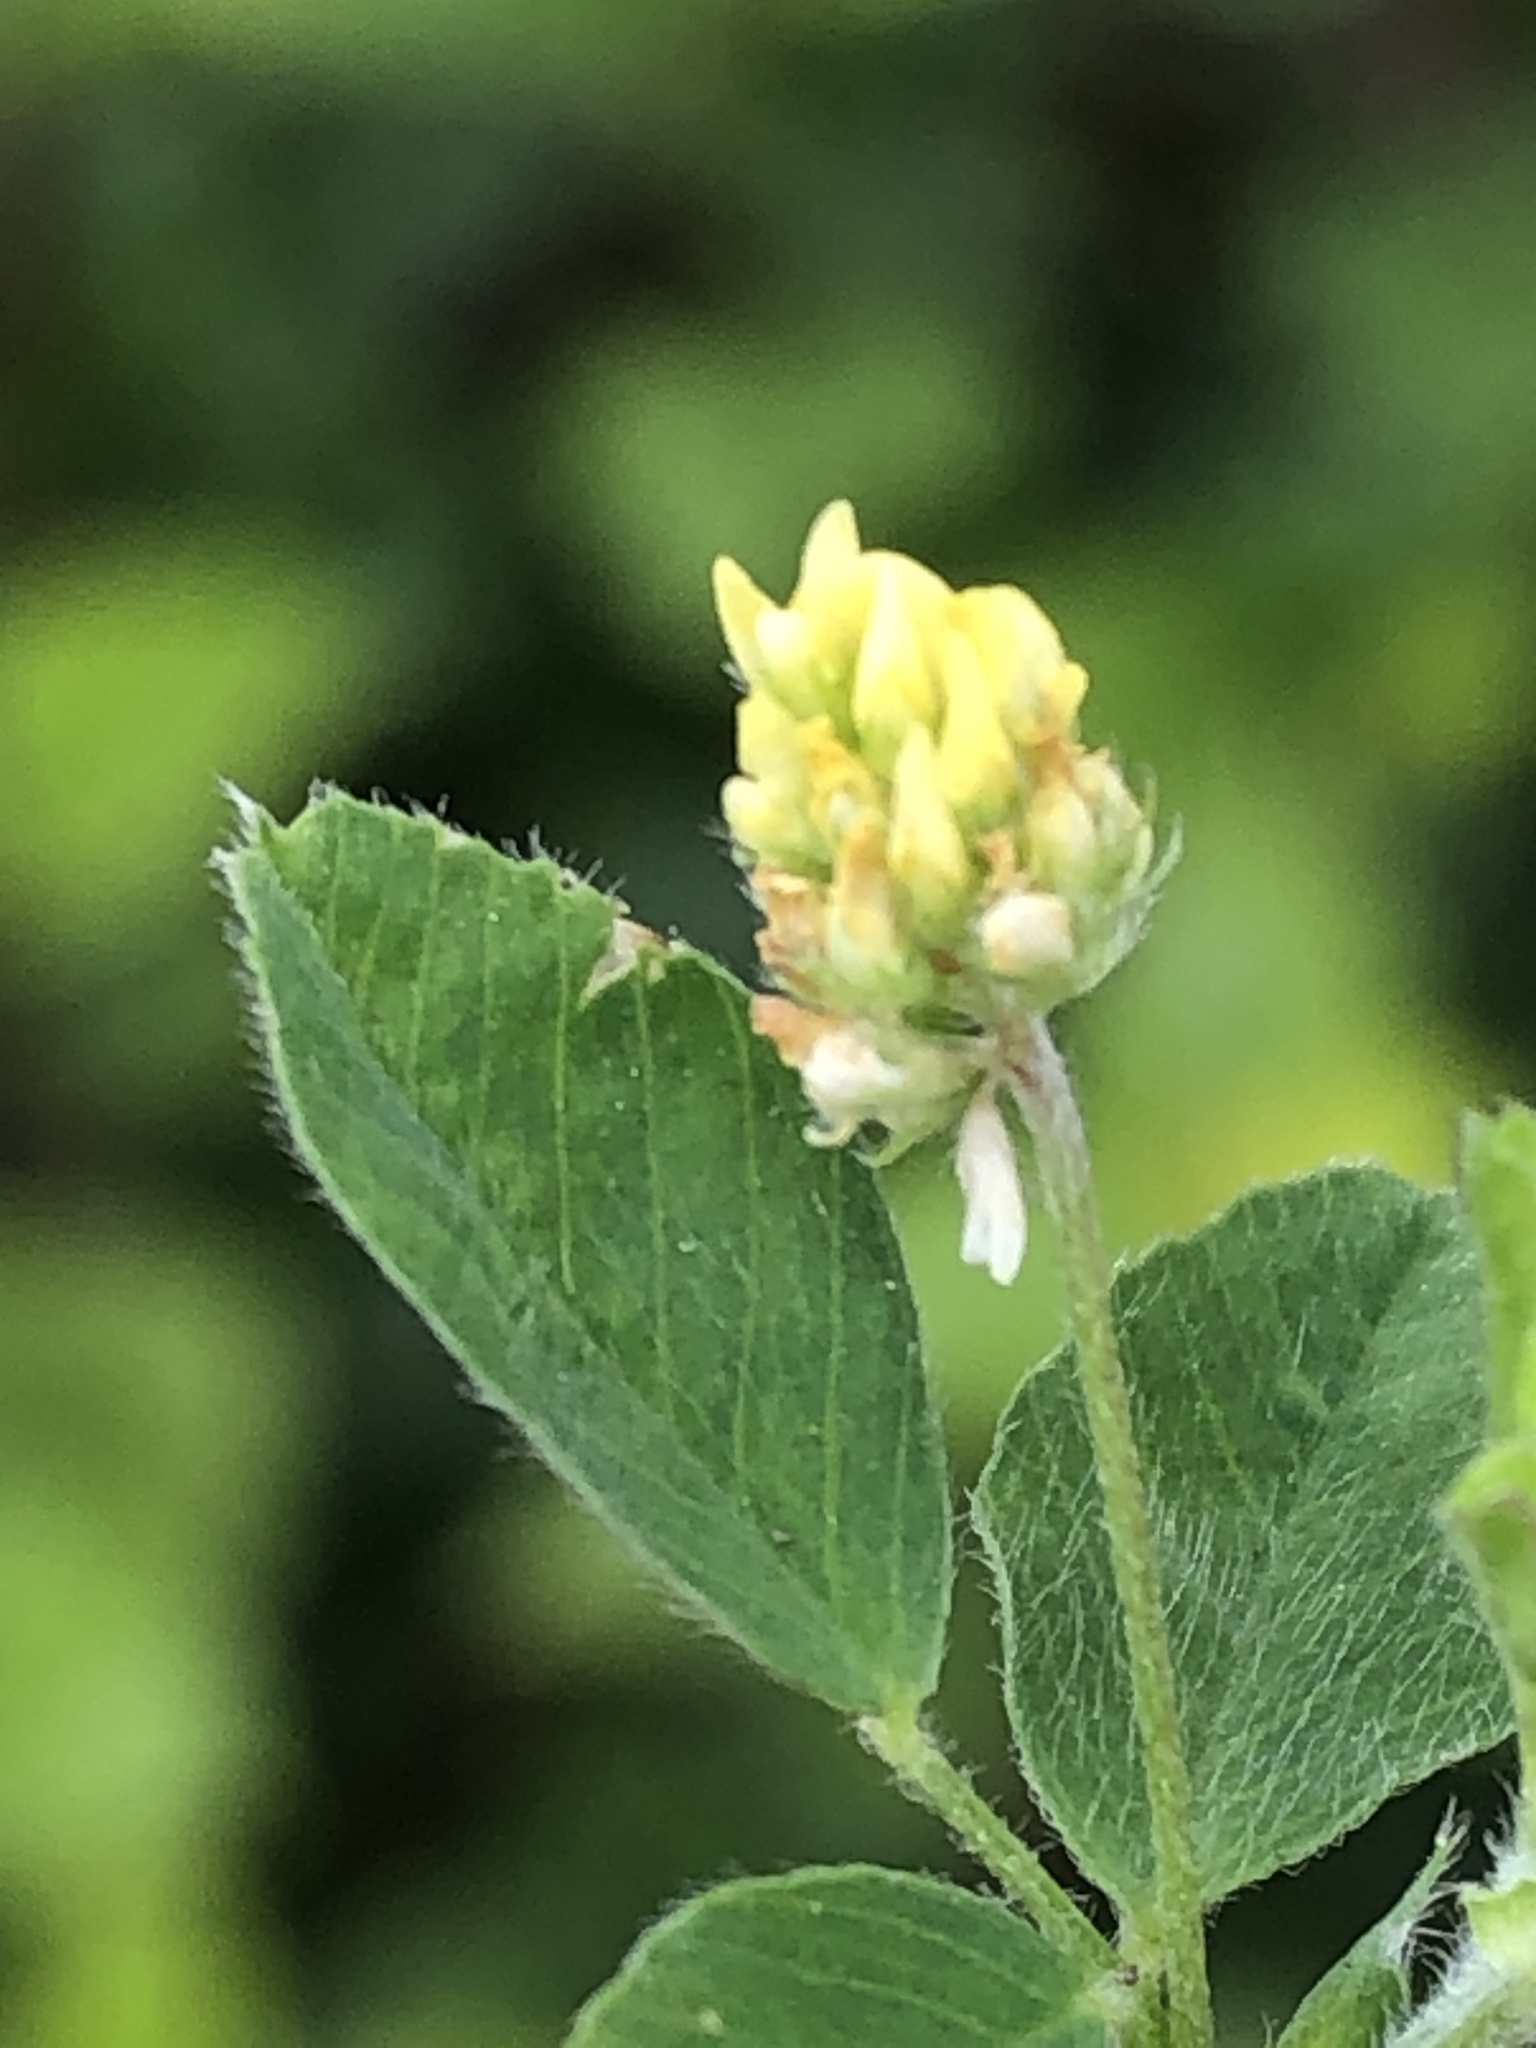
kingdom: Plantae
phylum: Tracheophyta
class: Magnoliopsida
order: Fabales
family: Fabaceae
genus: Medicago
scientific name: Medicago lupulina
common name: Black medick
